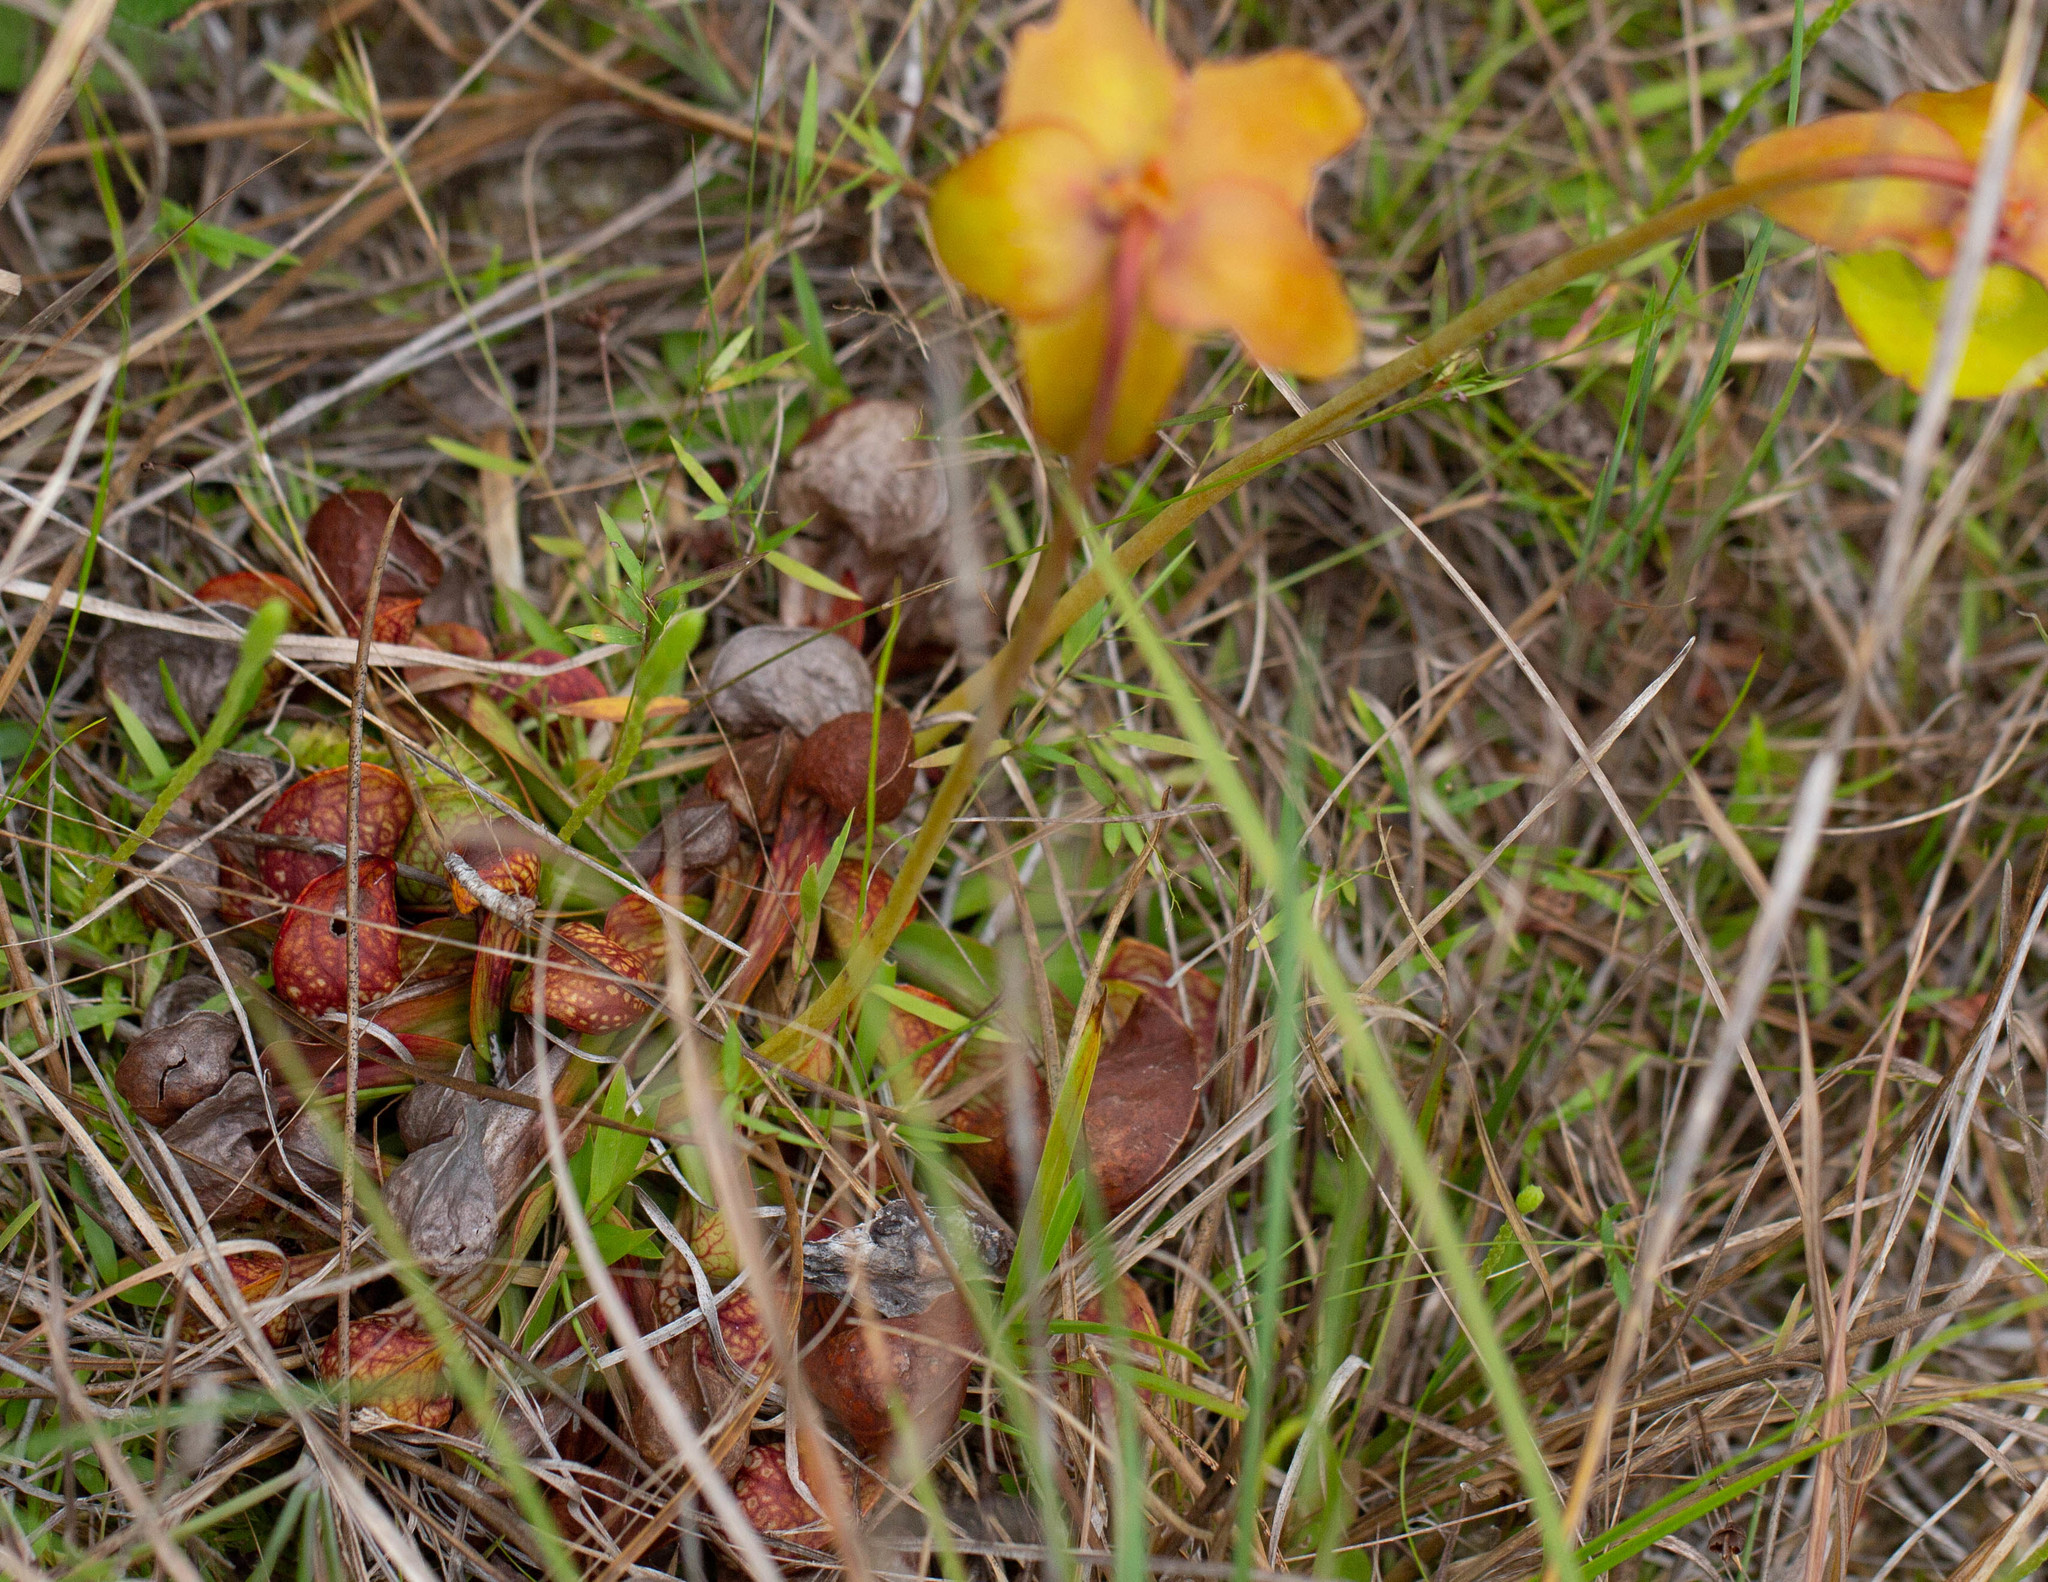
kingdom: Plantae
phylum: Tracheophyta
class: Magnoliopsida
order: Ericales
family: Sarraceniaceae
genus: Sarracenia
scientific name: Sarracenia psittacina
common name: Parrot pitcherplant
